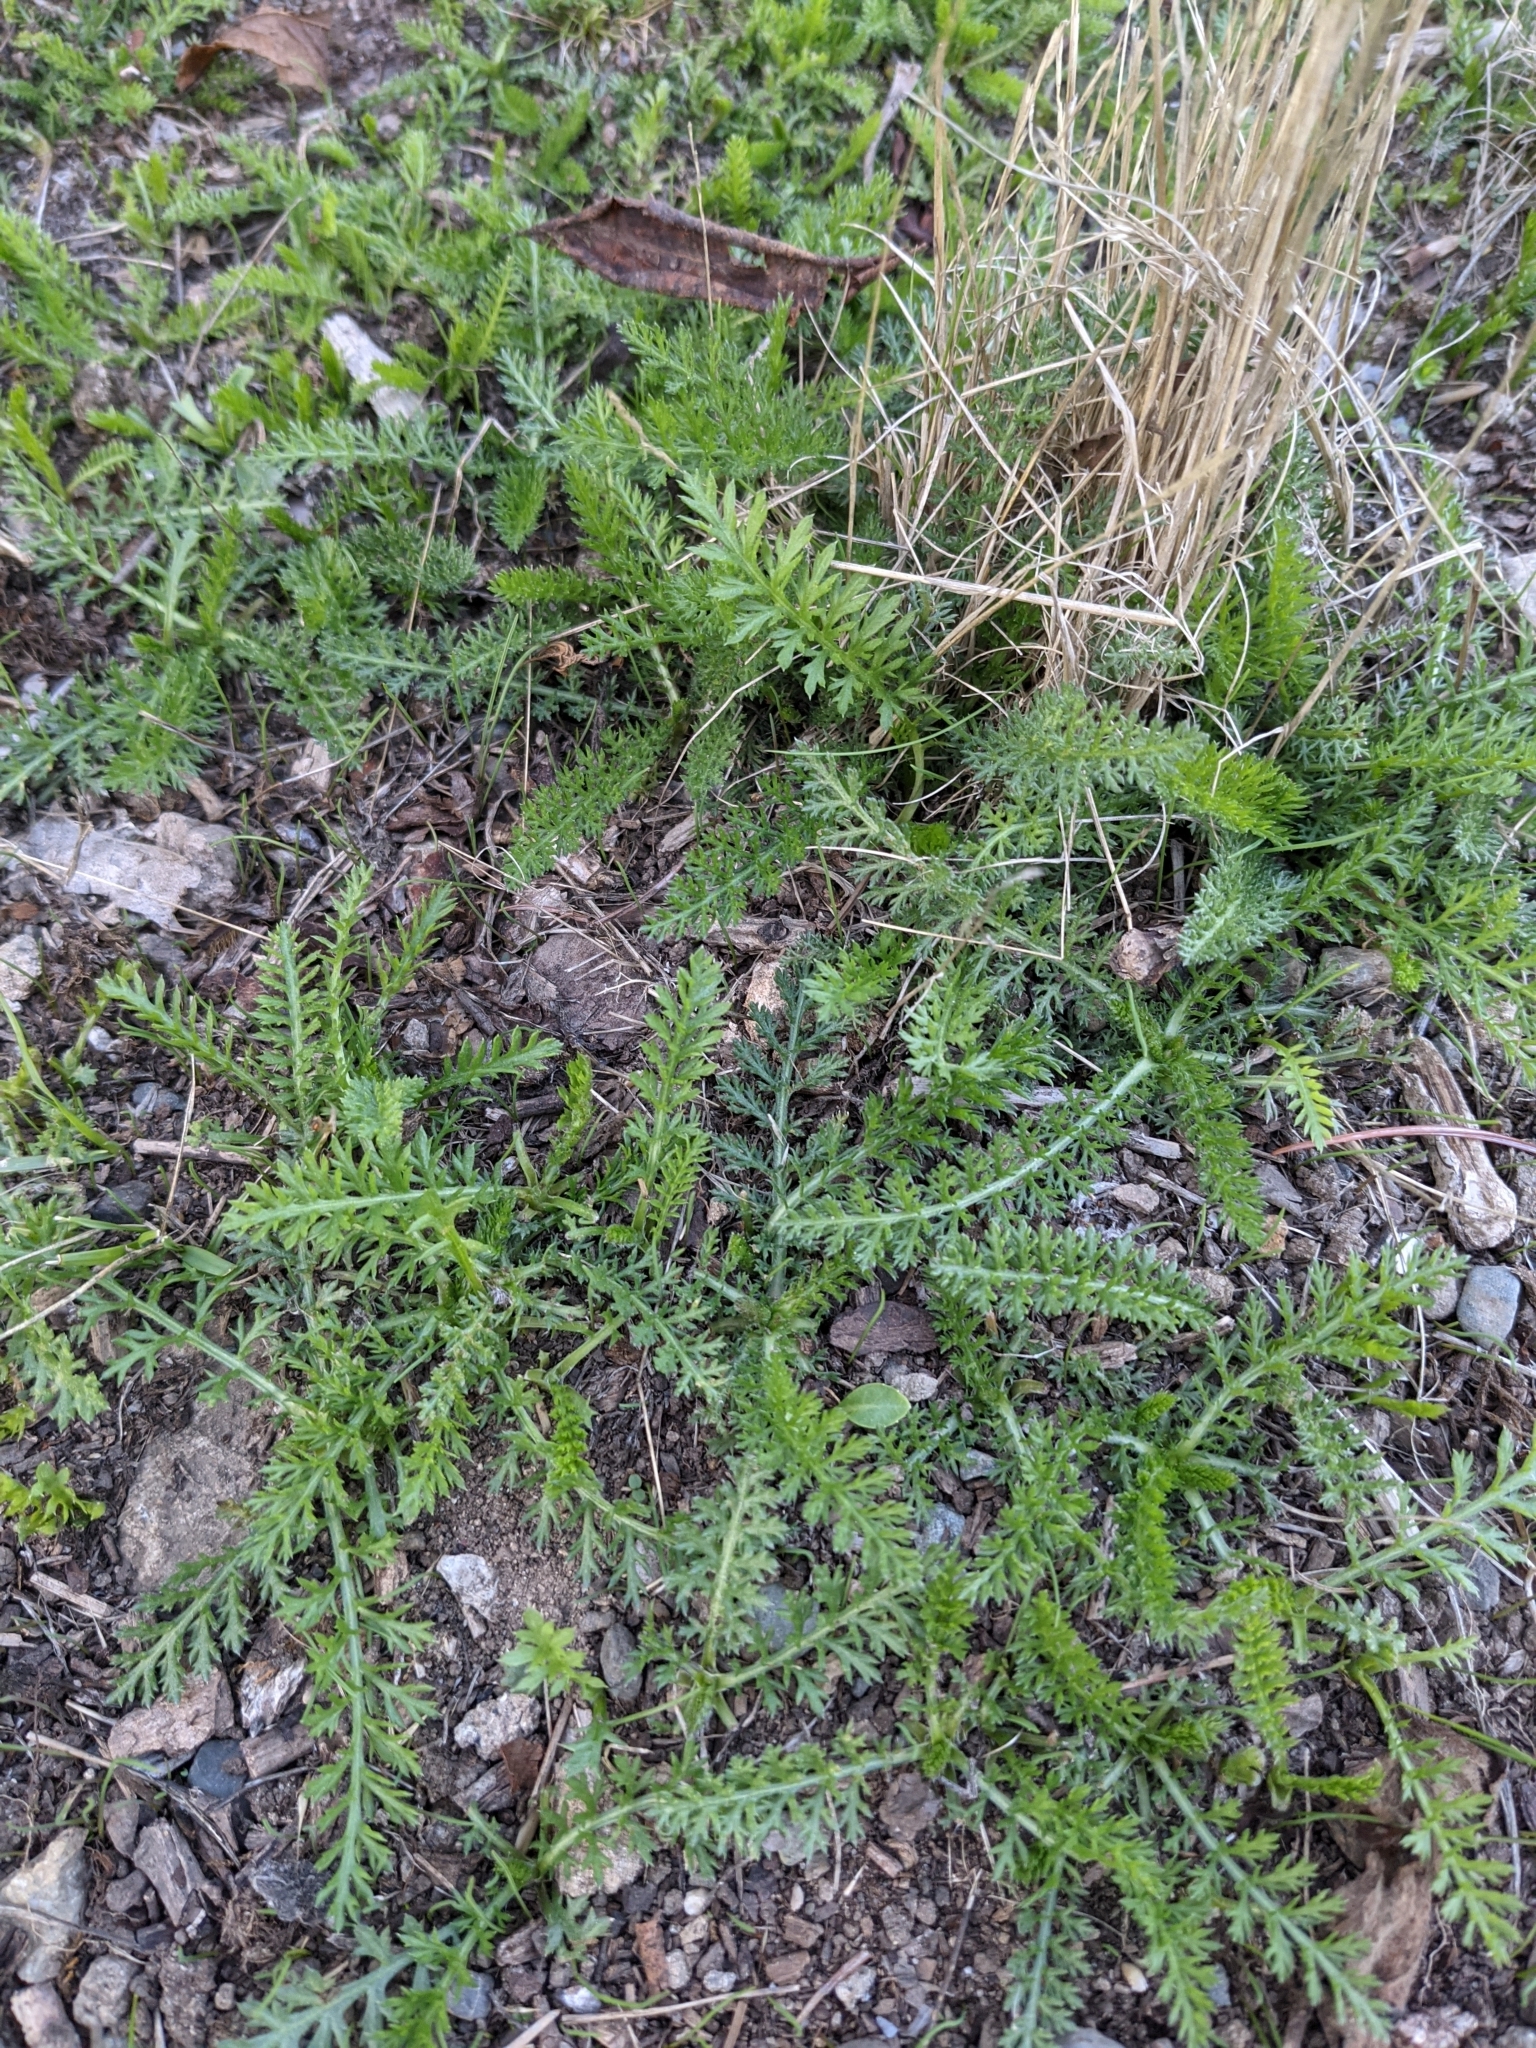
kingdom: Plantae
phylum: Tracheophyta
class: Magnoliopsida
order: Asterales
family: Asteraceae
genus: Achillea
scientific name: Achillea millefolium
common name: Yarrow
